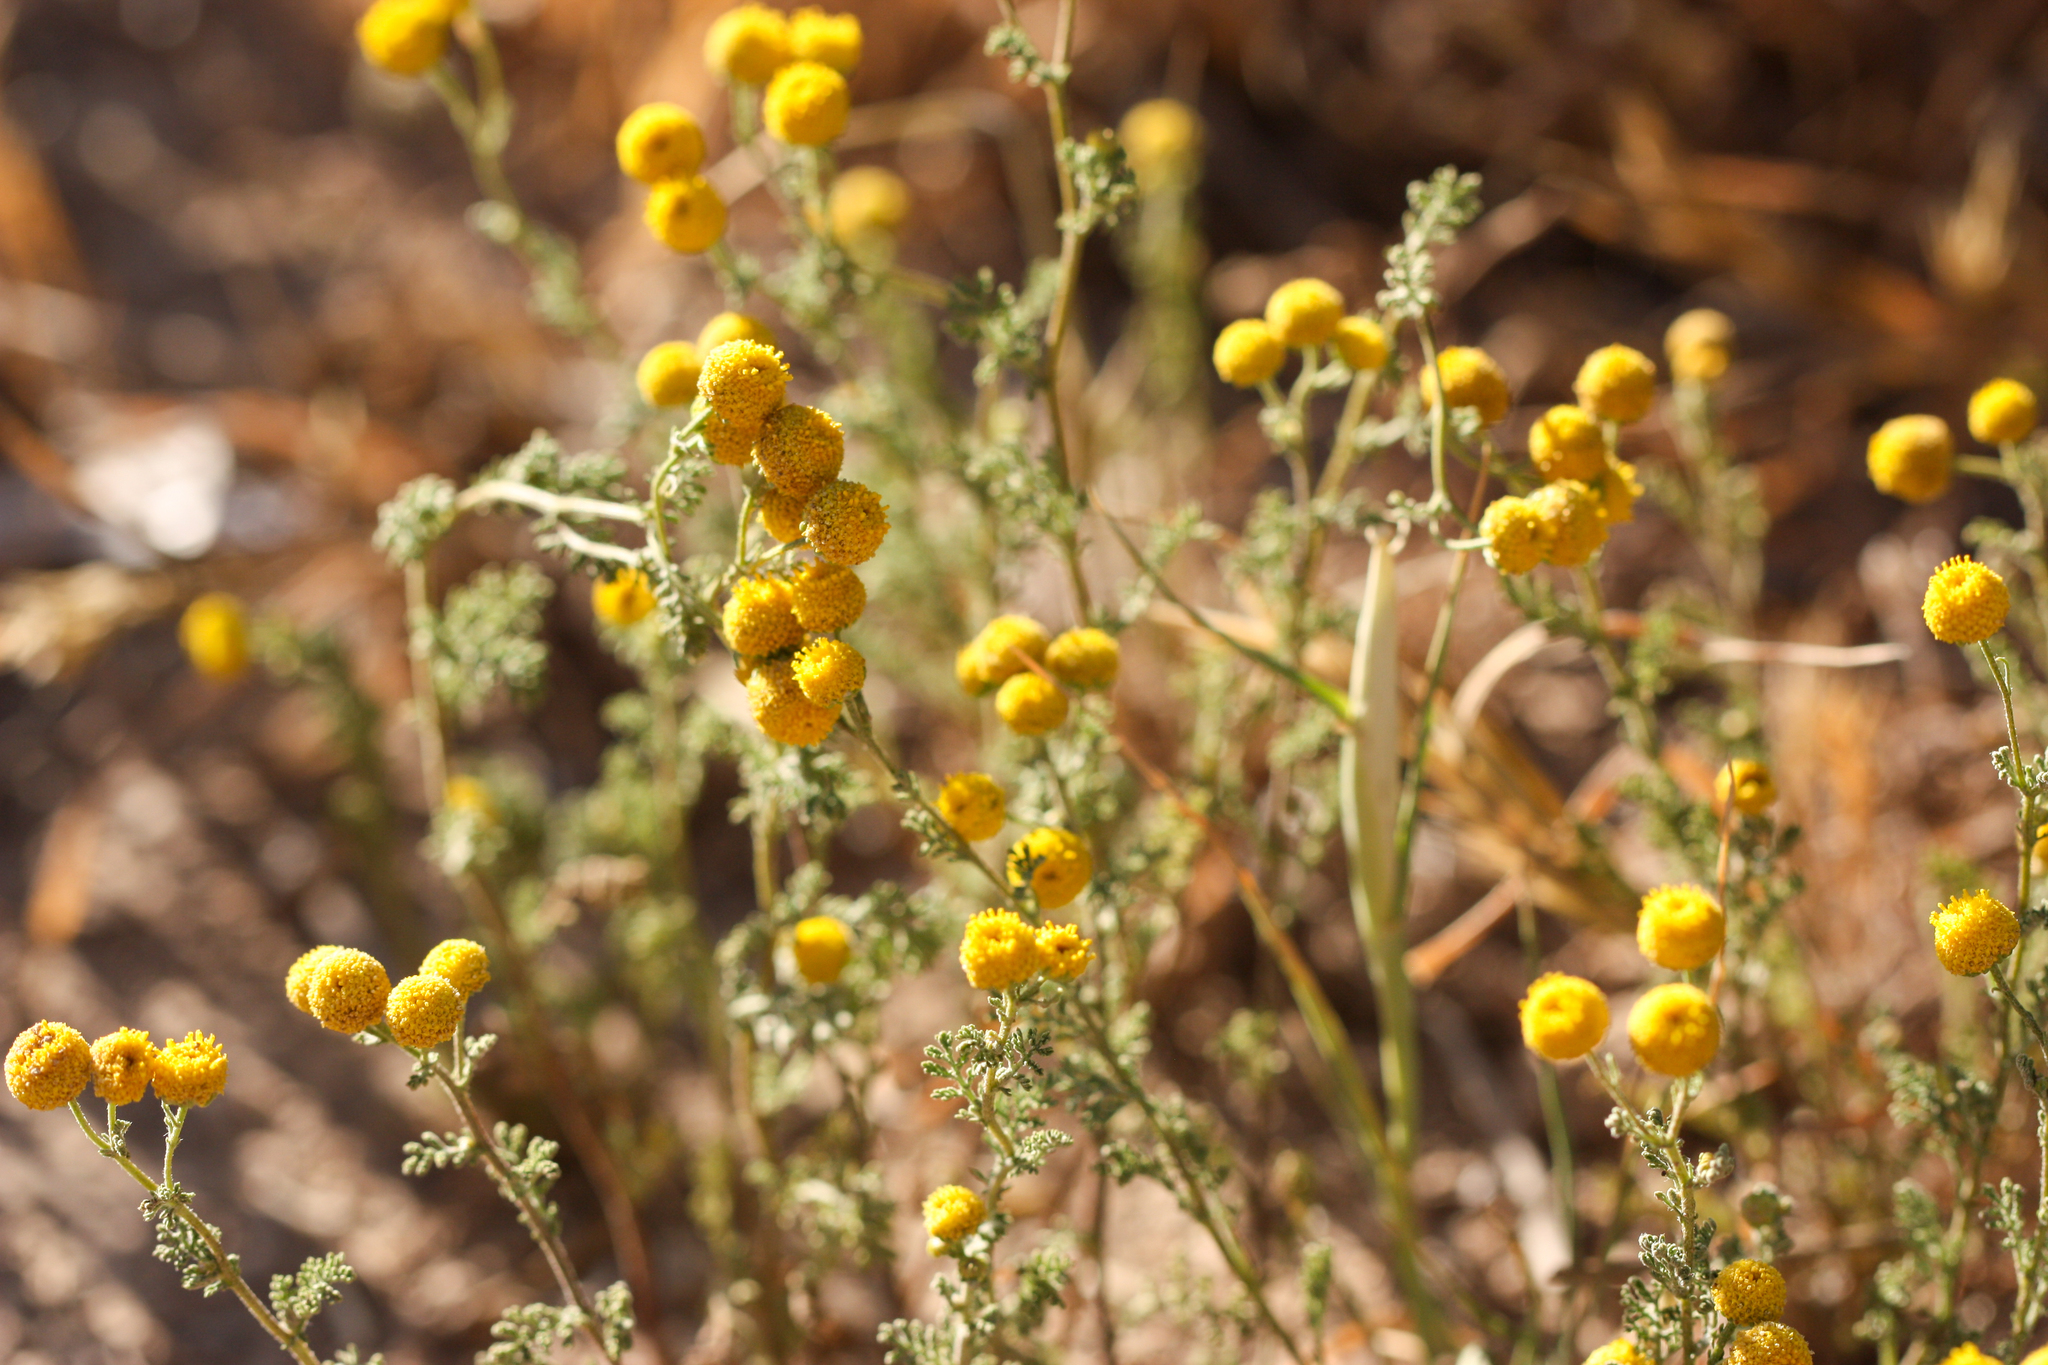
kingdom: Plantae
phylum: Tracheophyta
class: Magnoliopsida
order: Asterales
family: Asteraceae
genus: Oncosiphon
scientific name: Oncosiphon pilulifer
